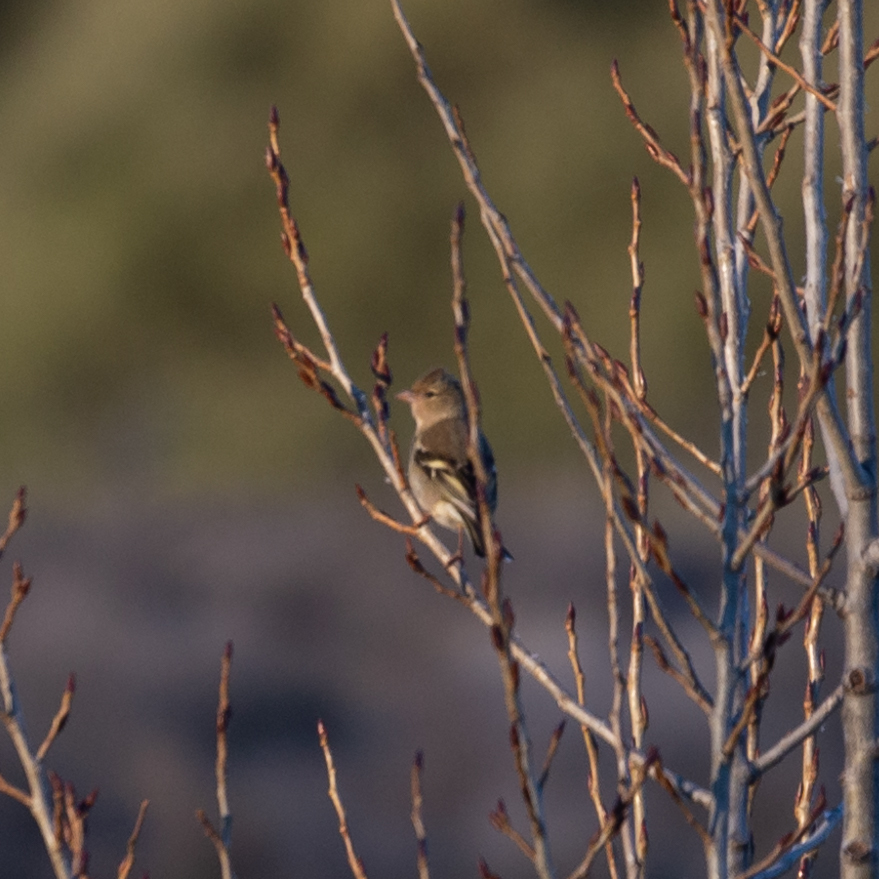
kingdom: Animalia
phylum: Chordata
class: Aves
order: Passeriformes
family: Fringillidae
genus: Fringilla
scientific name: Fringilla coelebs
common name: Common chaffinch
